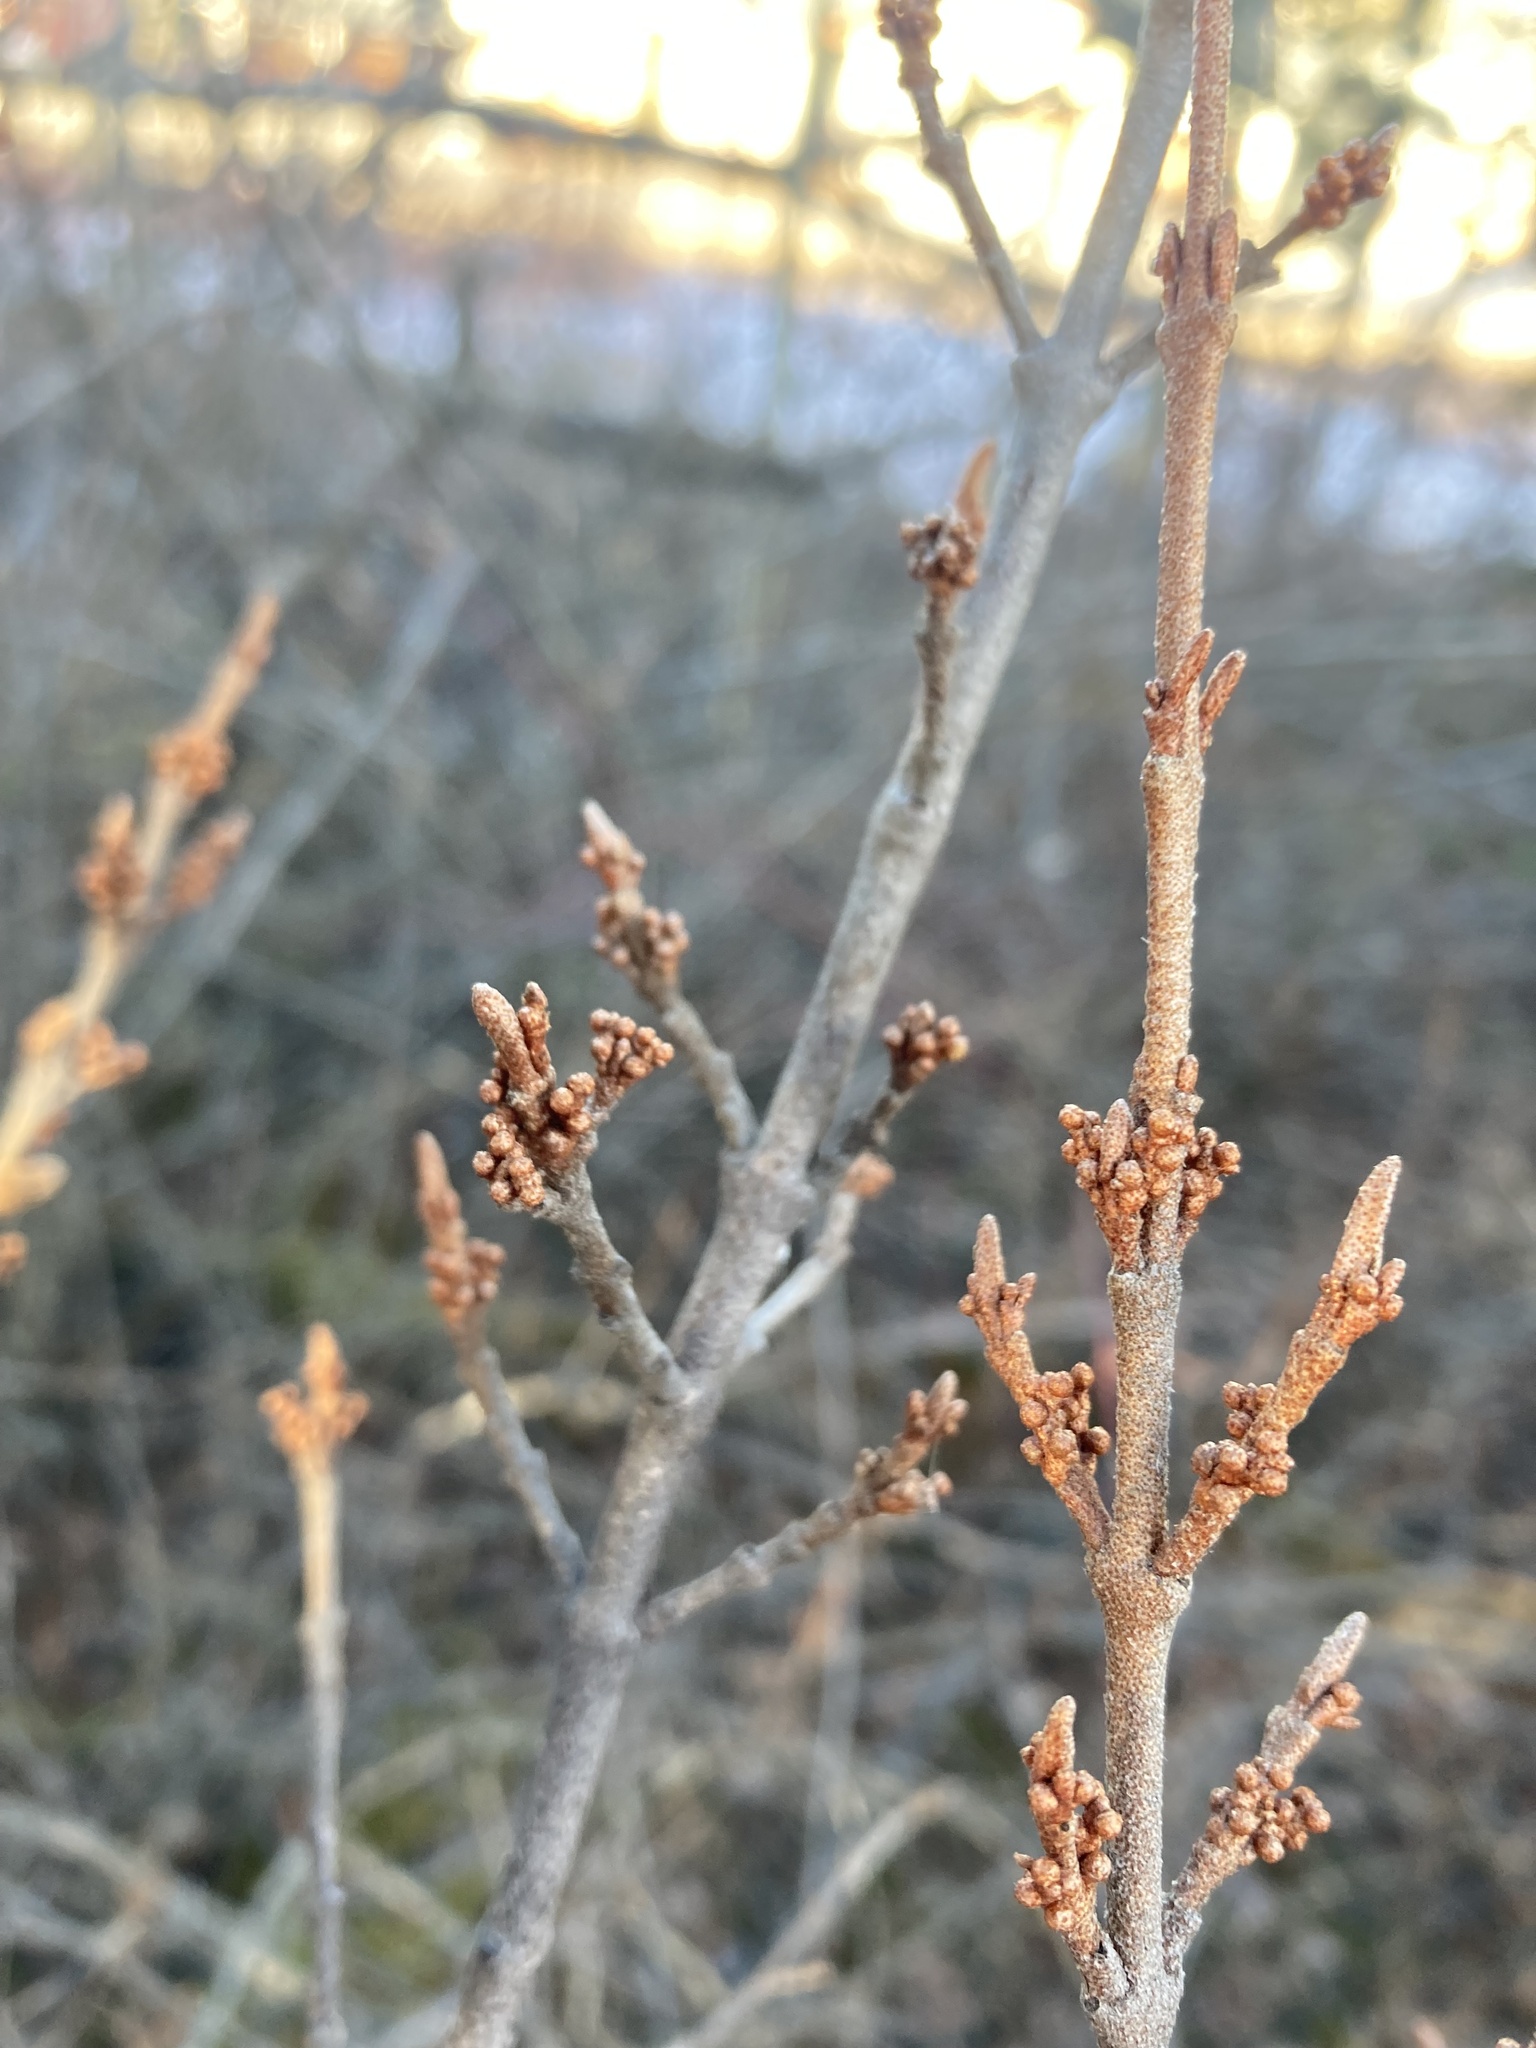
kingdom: Plantae
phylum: Tracheophyta
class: Magnoliopsida
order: Rosales
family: Elaeagnaceae
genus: Shepherdia
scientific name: Shepherdia canadensis
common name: Soapberry
